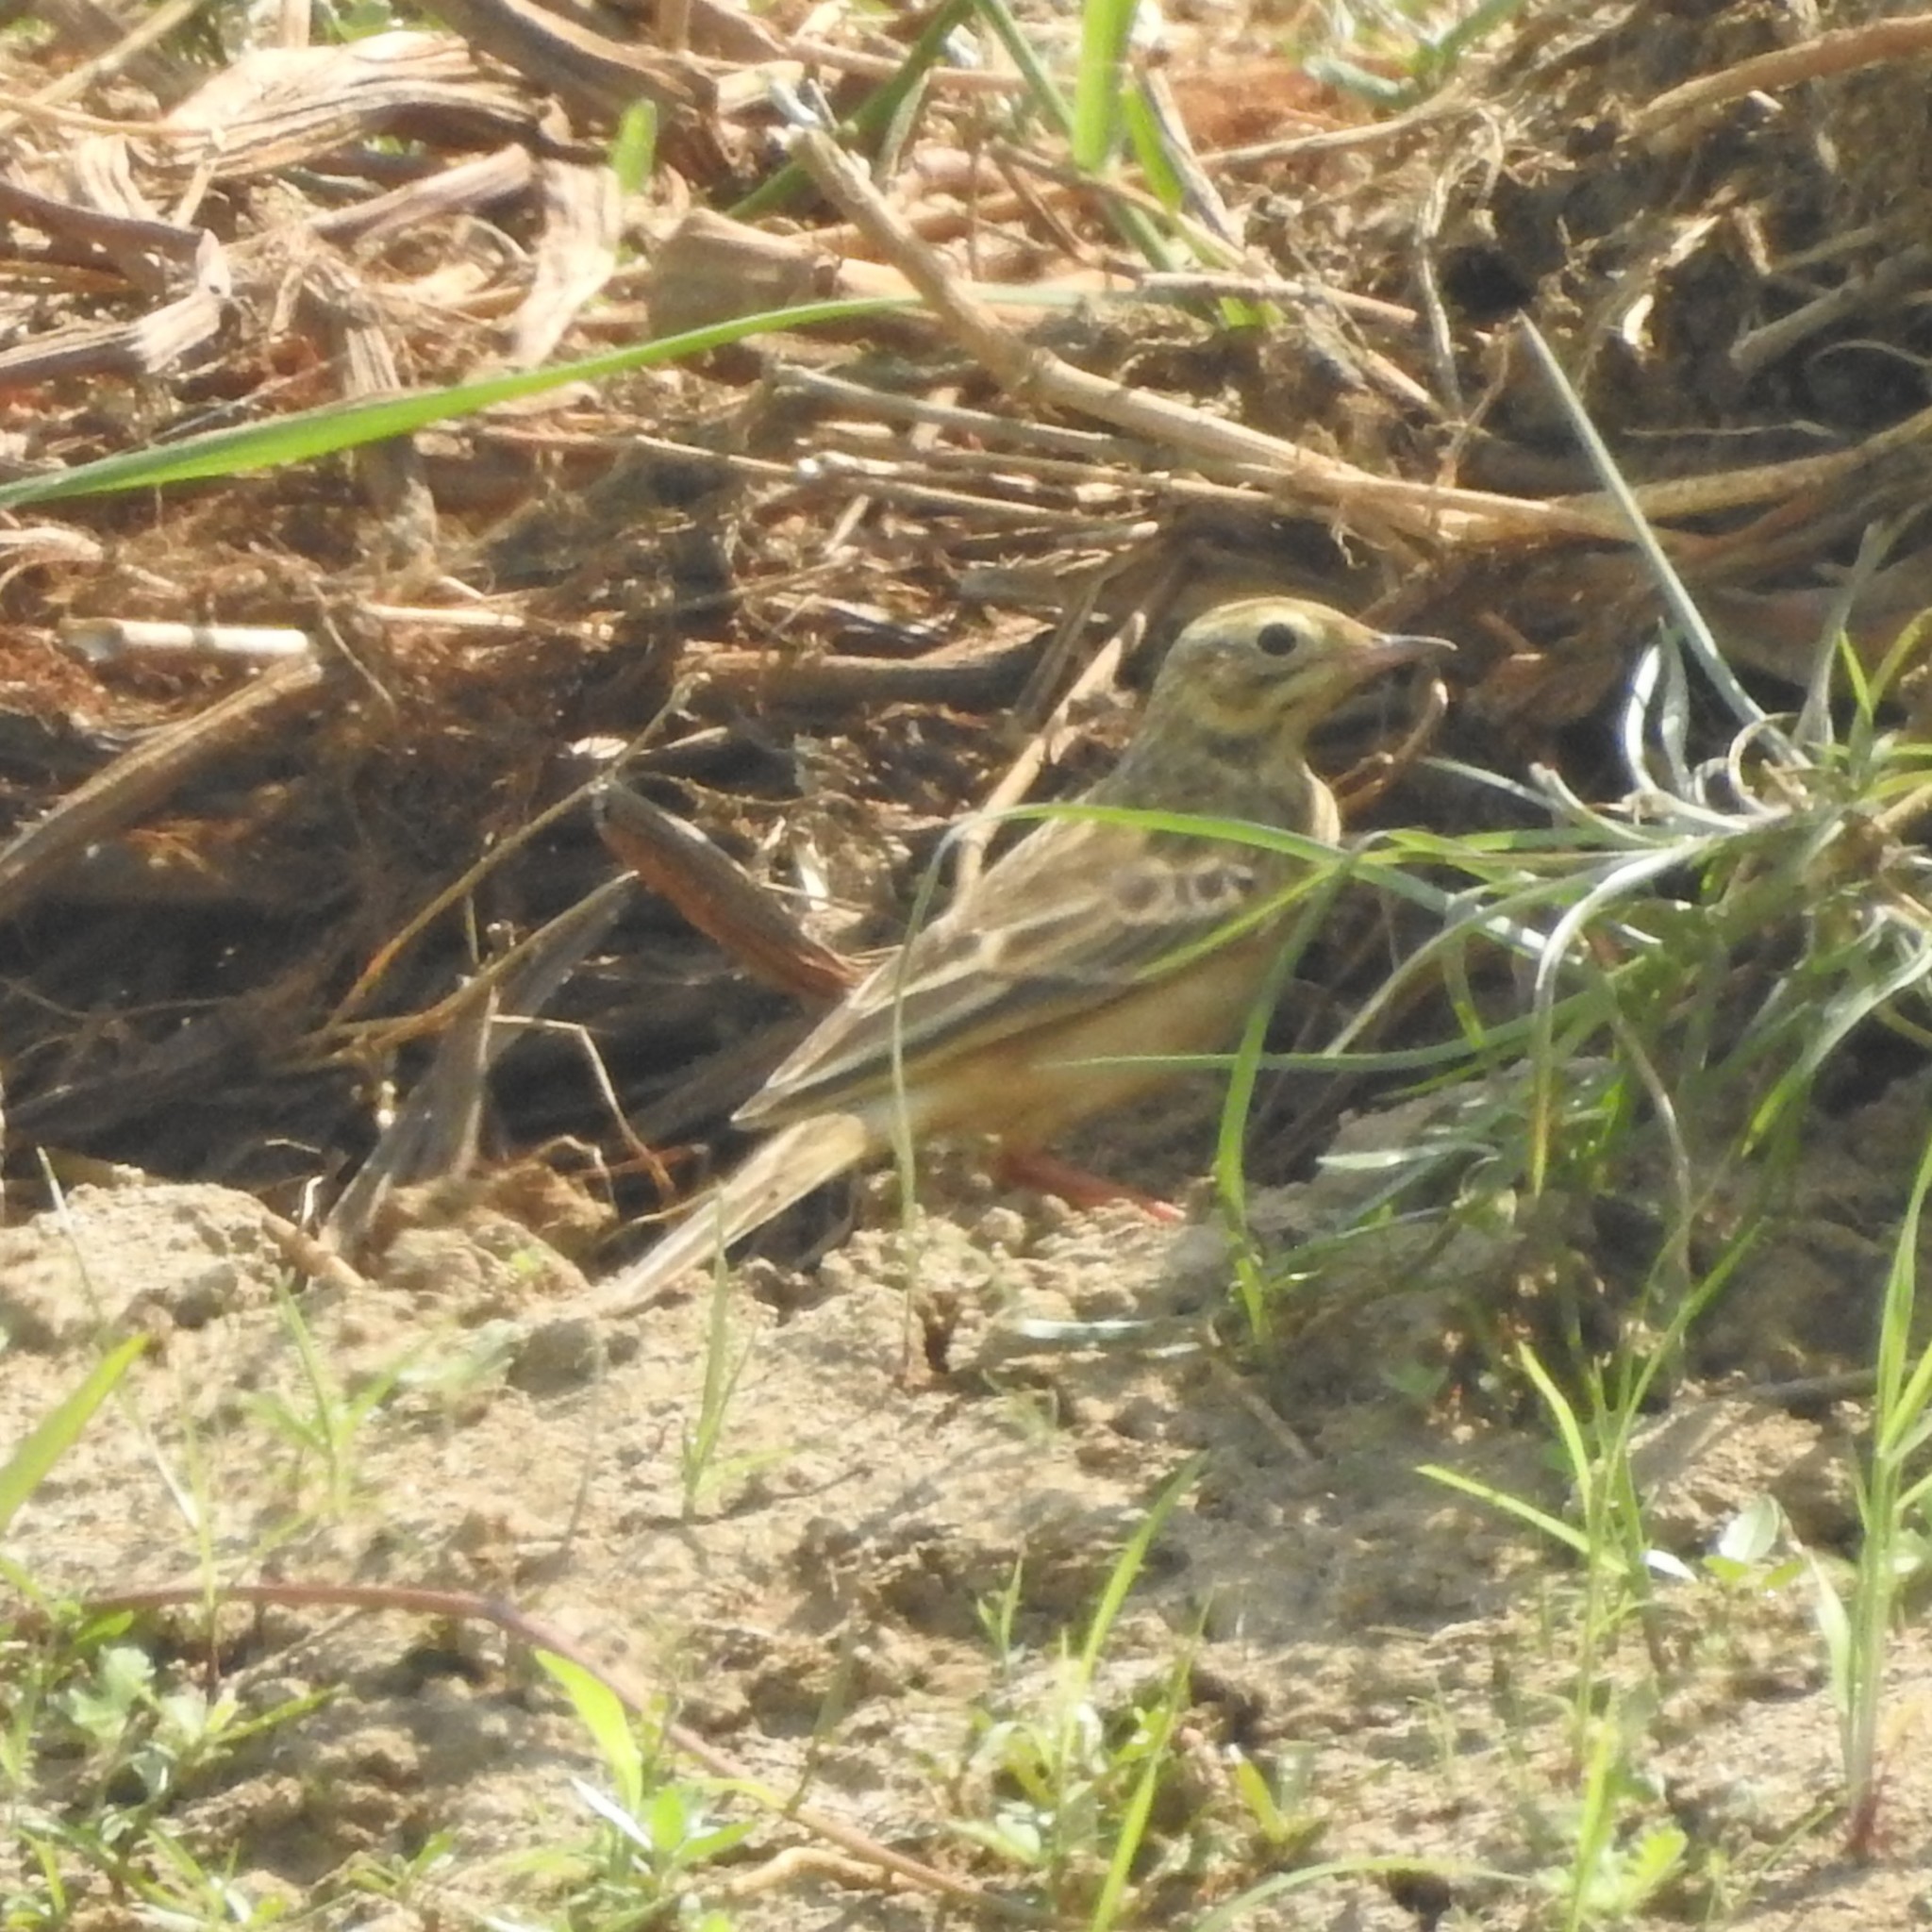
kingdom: Animalia
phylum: Chordata
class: Aves
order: Passeriformes
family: Motacillidae
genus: Anthus
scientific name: Anthus godlewskii
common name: Blyth's pipit
